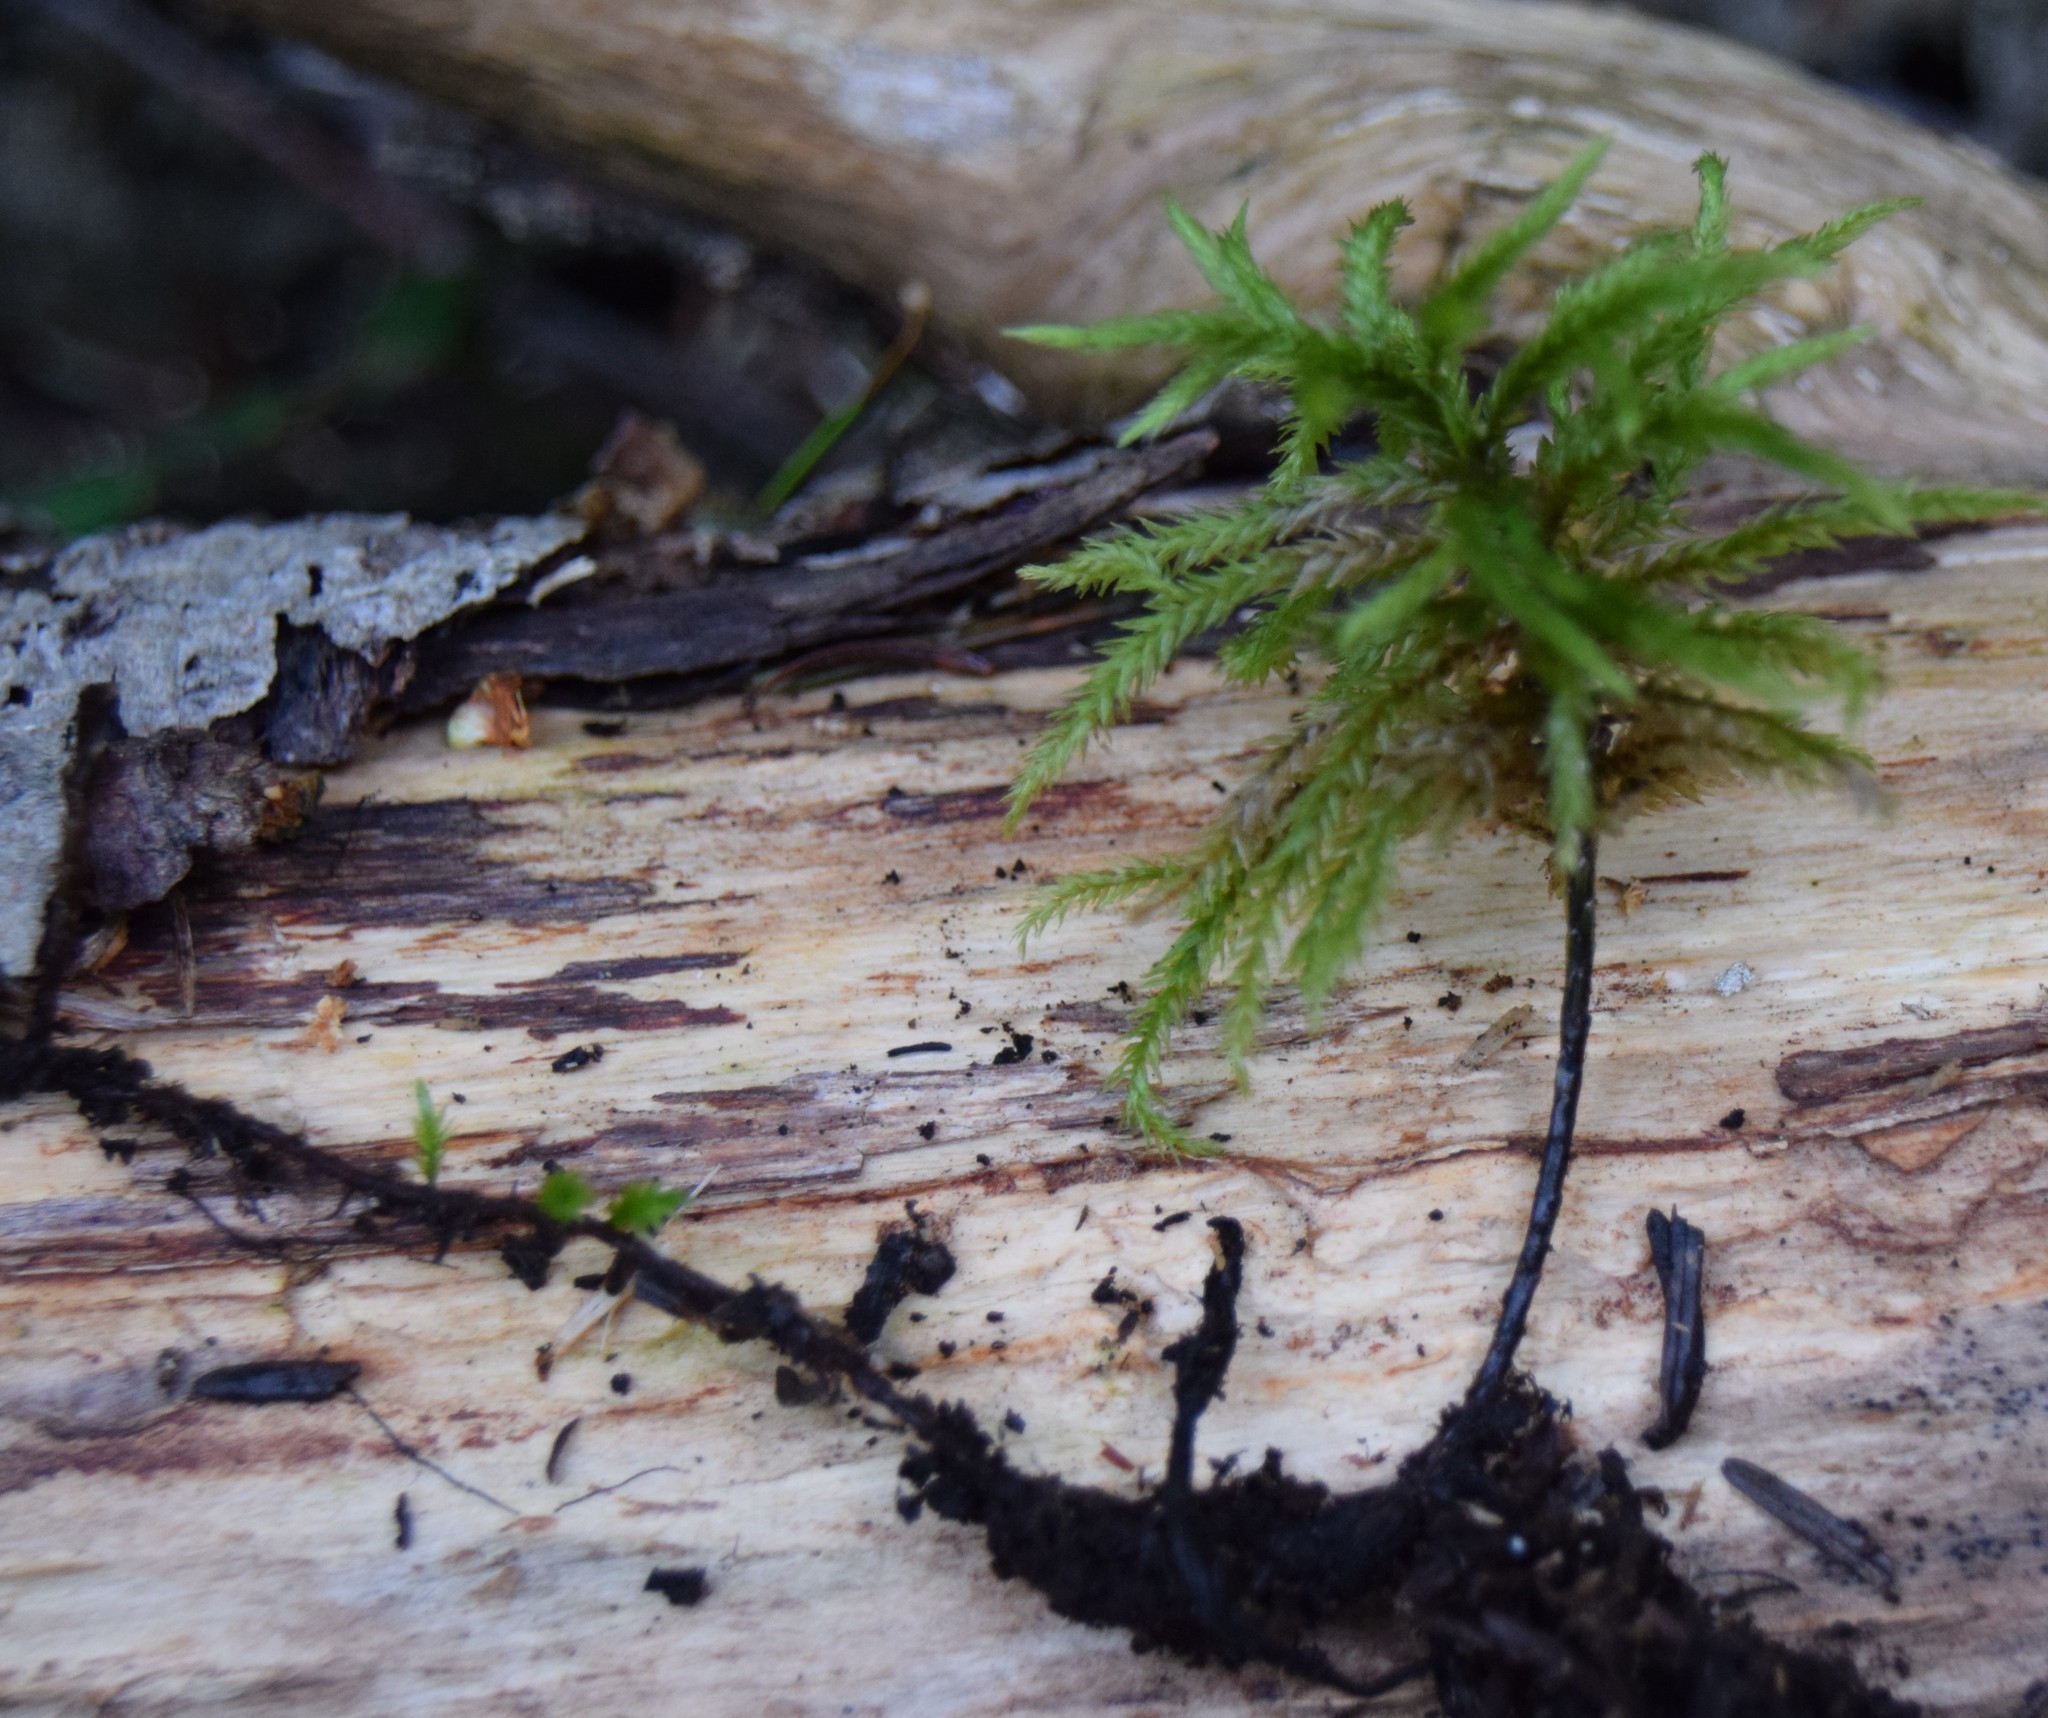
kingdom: Plantae
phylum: Bryophyta
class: Bryopsida
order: Hypnales
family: Climaciaceae
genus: Climacium
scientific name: Climacium dendroides
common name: Northern tree moss
